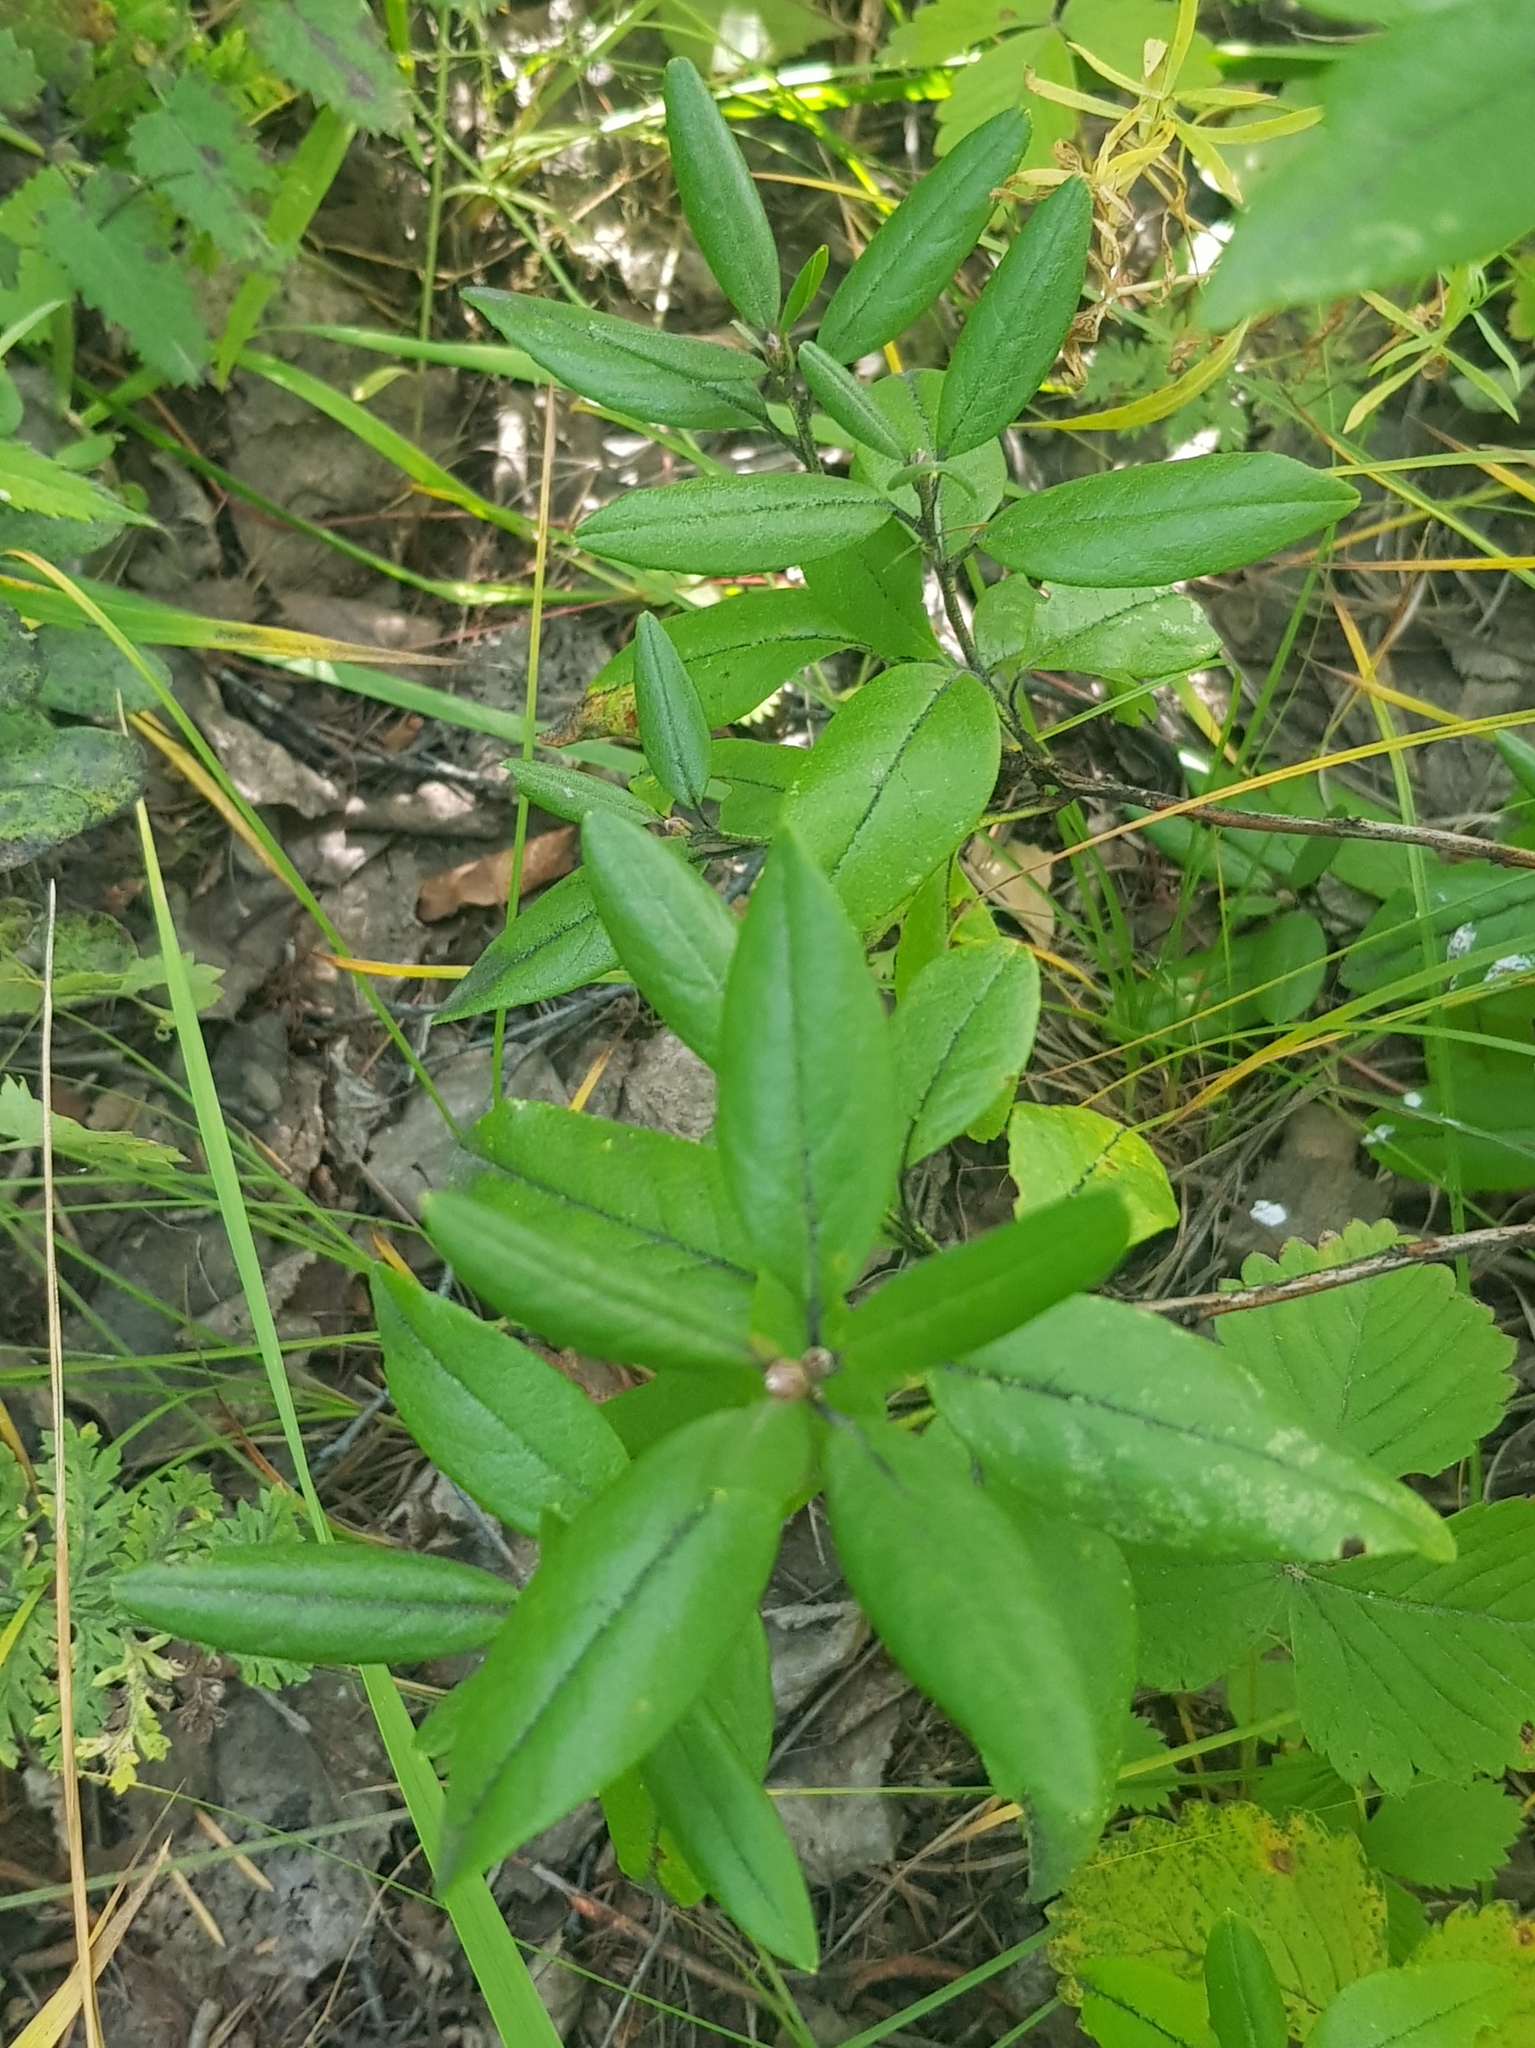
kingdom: Plantae
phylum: Tracheophyta
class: Magnoliopsida
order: Ericales
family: Ericaceae
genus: Rhododendron
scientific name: Rhododendron dauricum
